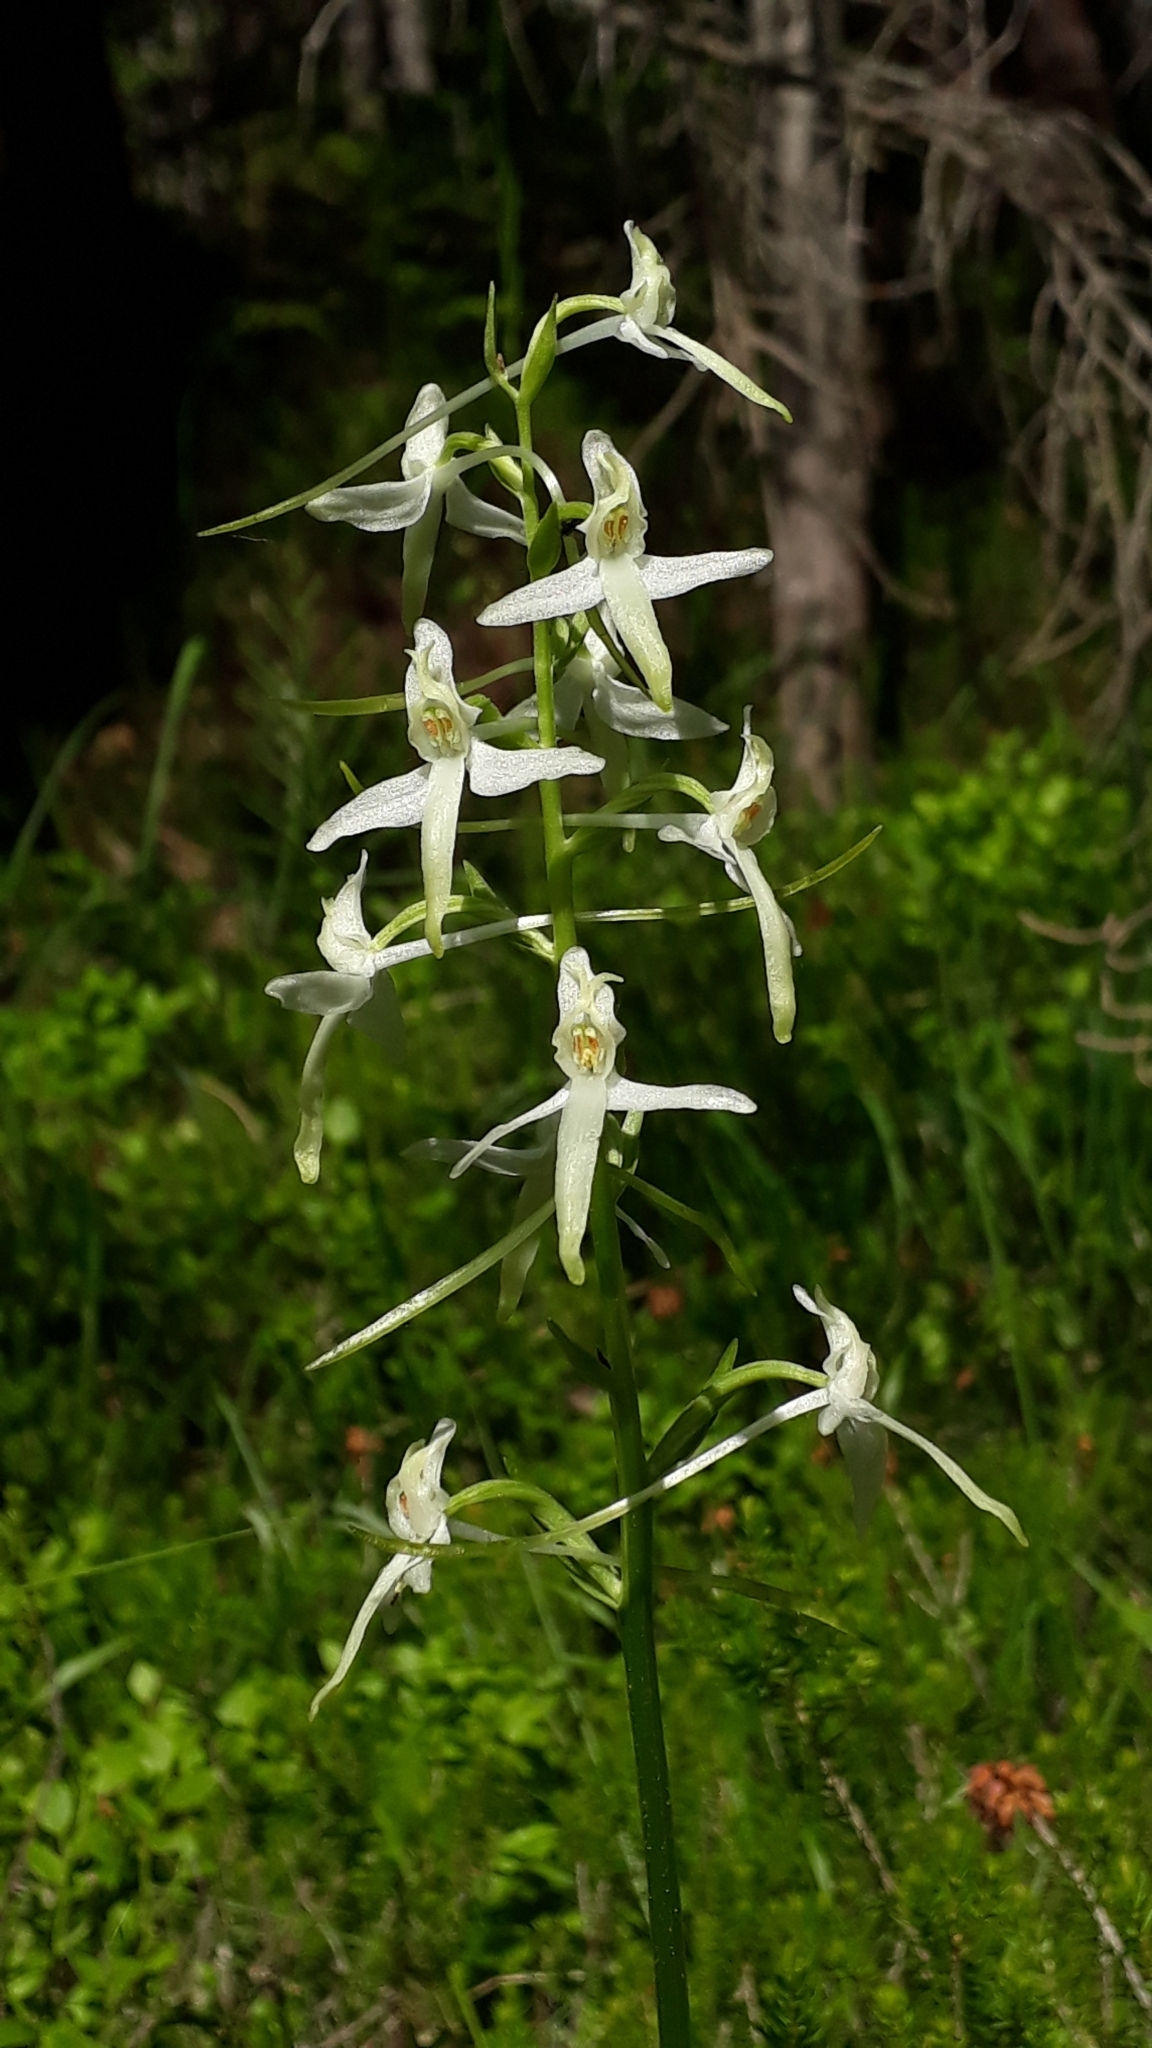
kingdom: Plantae
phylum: Tracheophyta
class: Liliopsida
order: Asparagales
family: Orchidaceae
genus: Platanthera
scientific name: Platanthera bifolia
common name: Lesser butterfly-orchid
